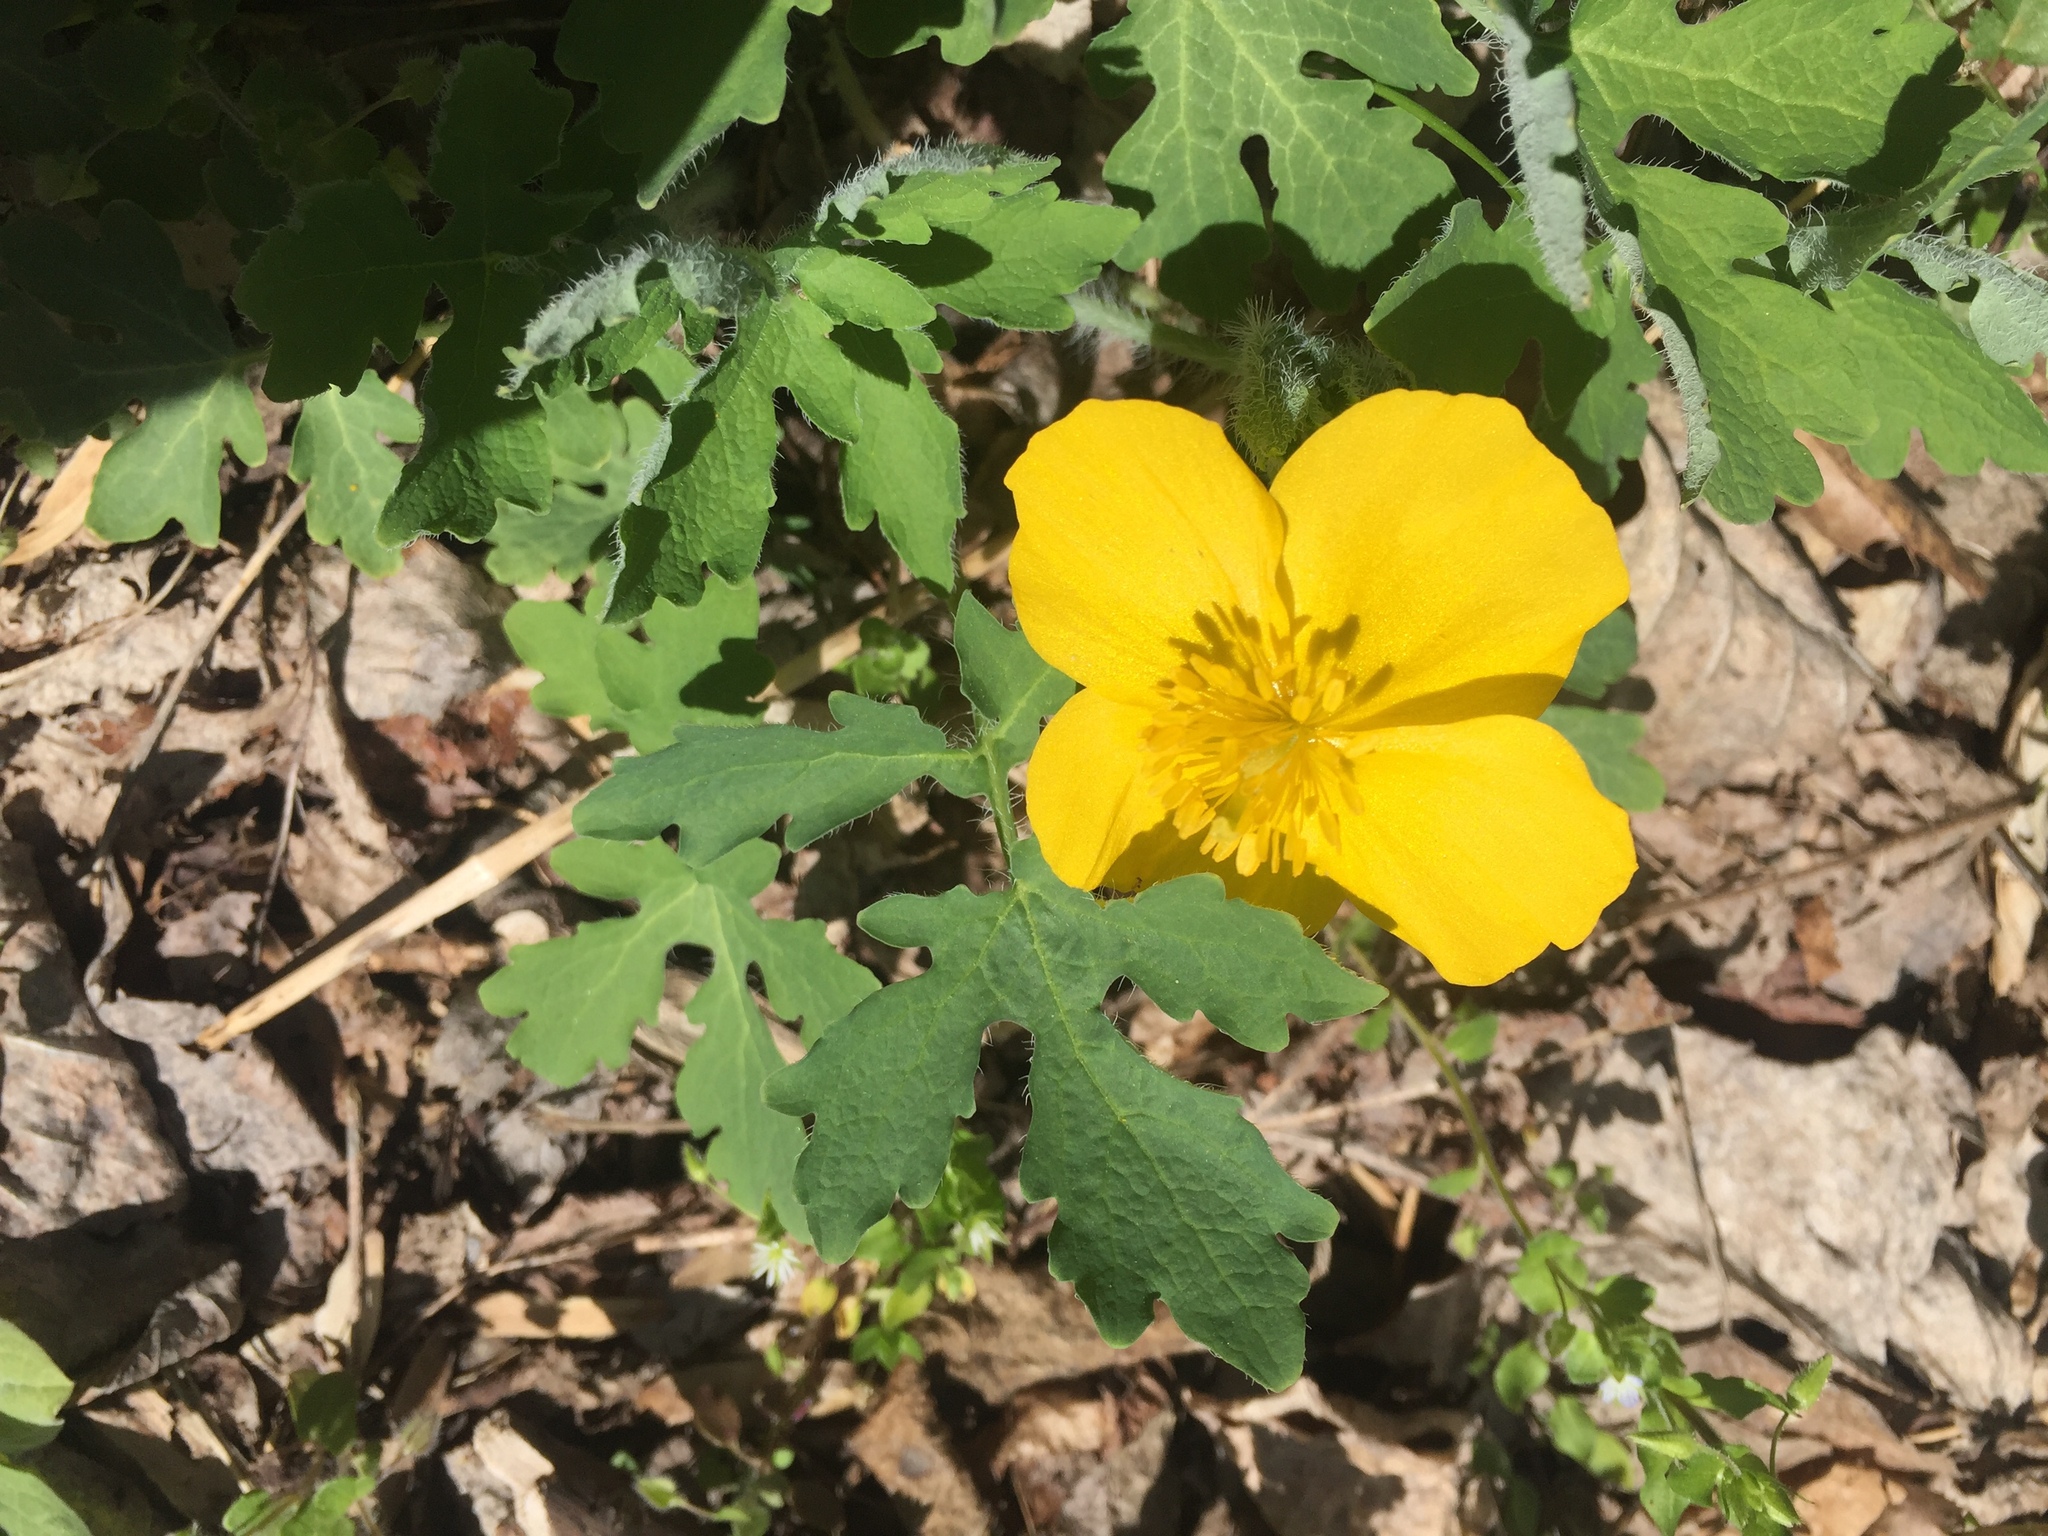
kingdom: Plantae
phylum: Tracheophyta
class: Magnoliopsida
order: Ranunculales
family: Papaveraceae
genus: Stylophorum
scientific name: Stylophorum diphyllum
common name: Celandine poppy
